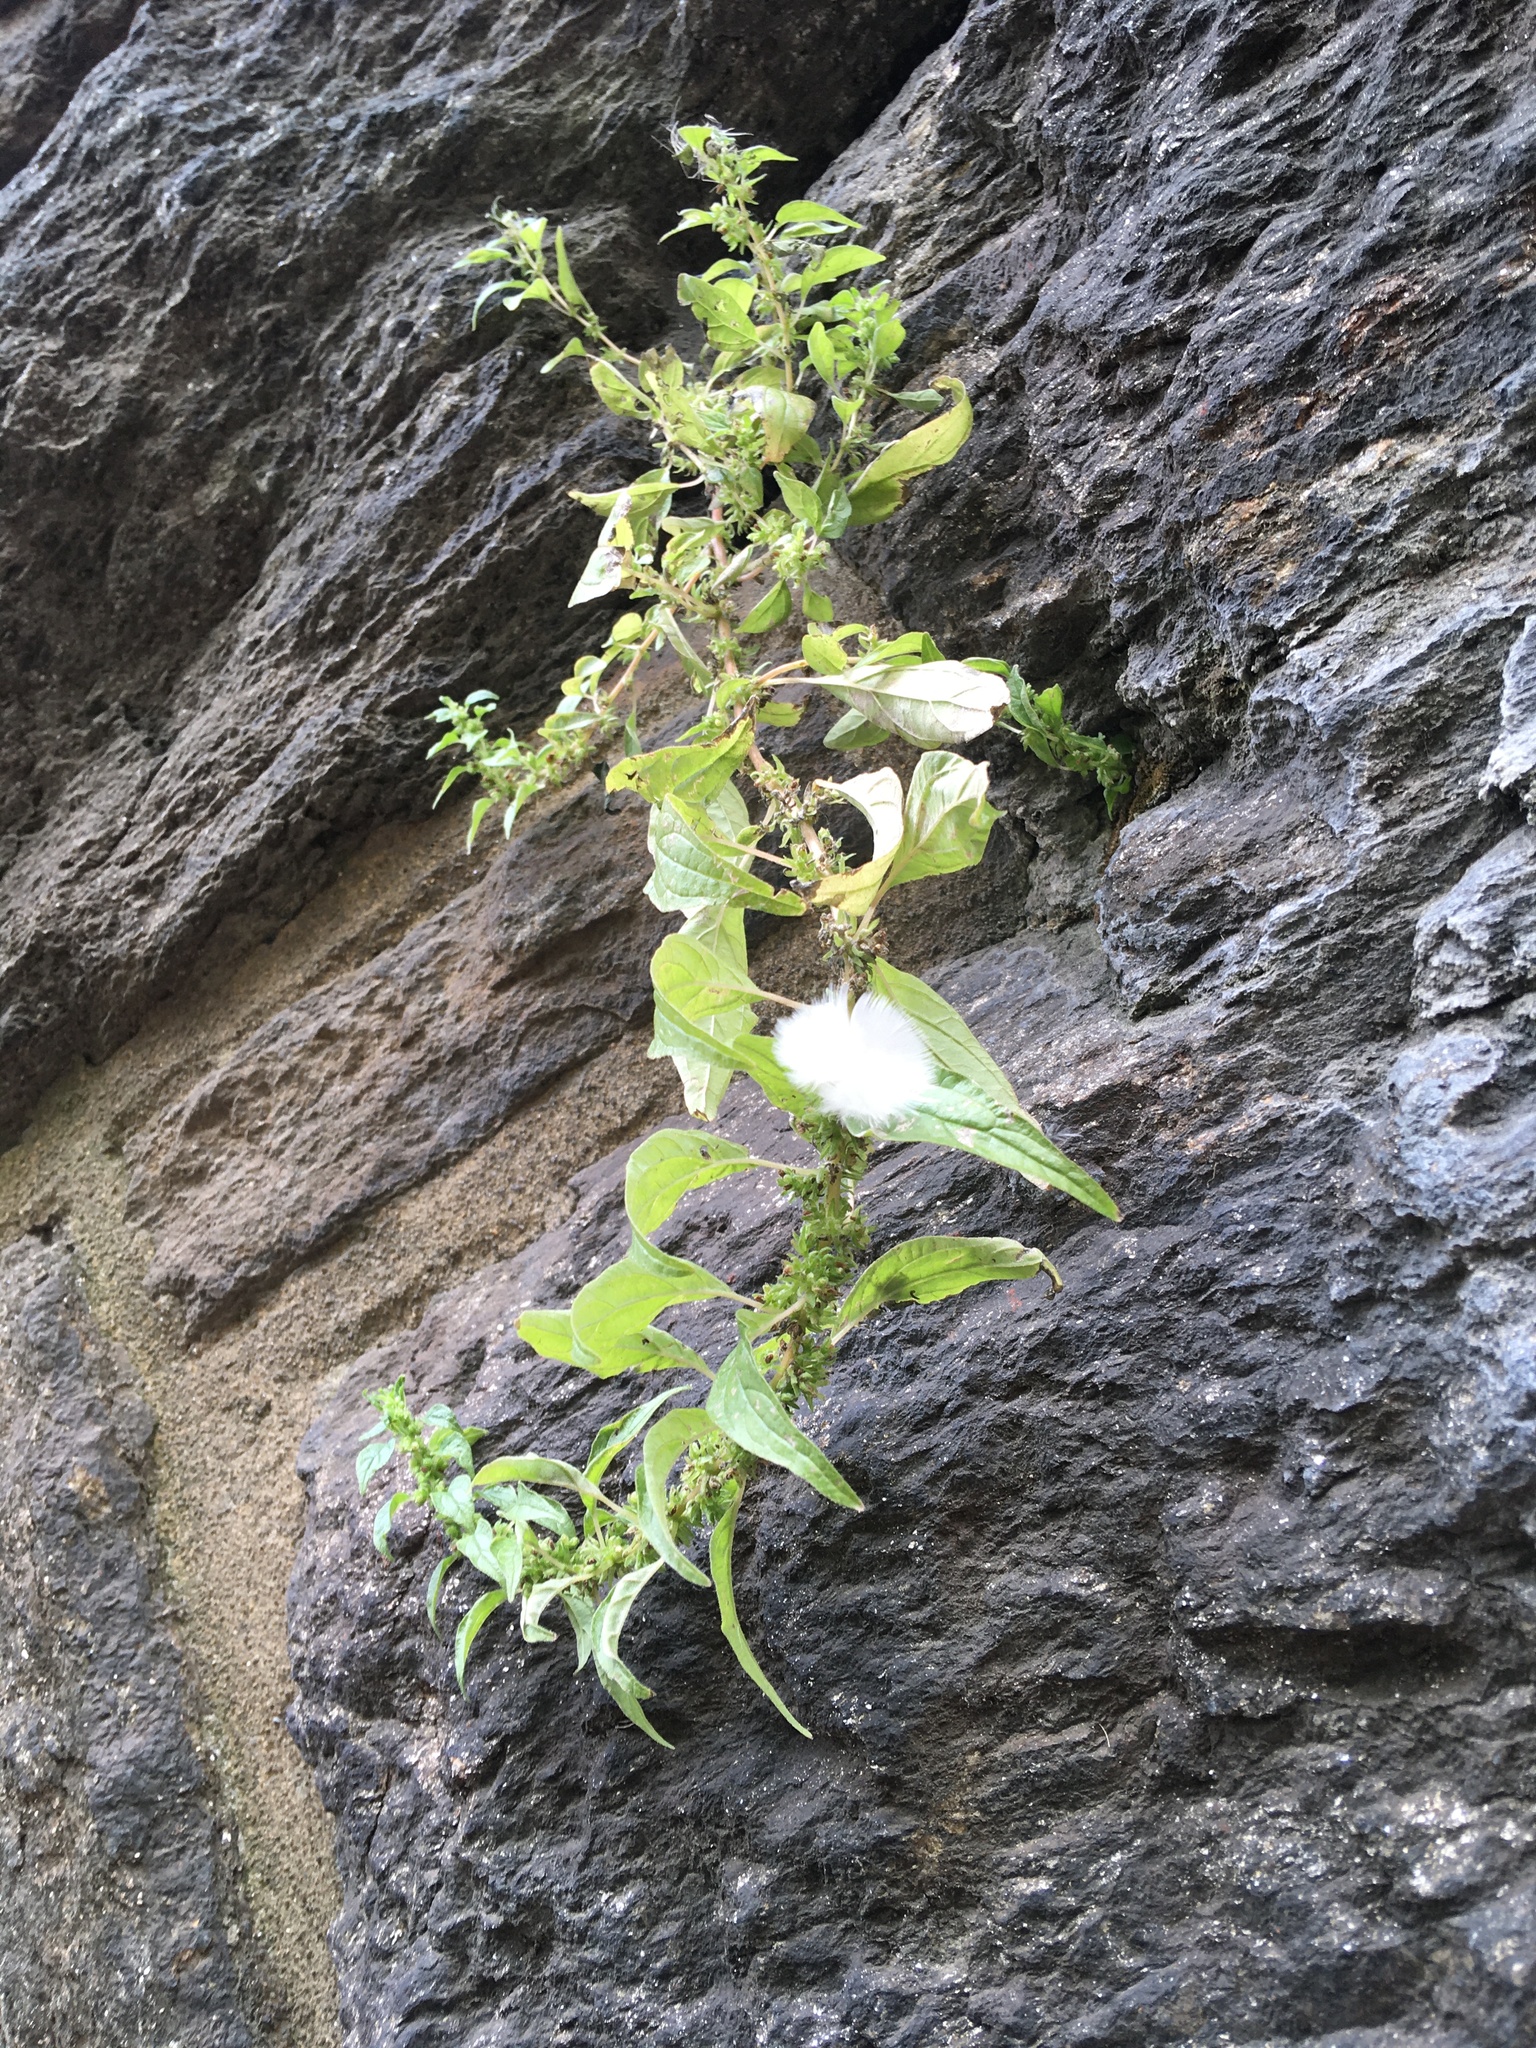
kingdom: Plantae
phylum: Tracheophyta
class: Magnoliopsida
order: Rosales
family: Urticaceae
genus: Parietaria
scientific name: Parietaria pensylvanica
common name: Pennsylvania pellitory
